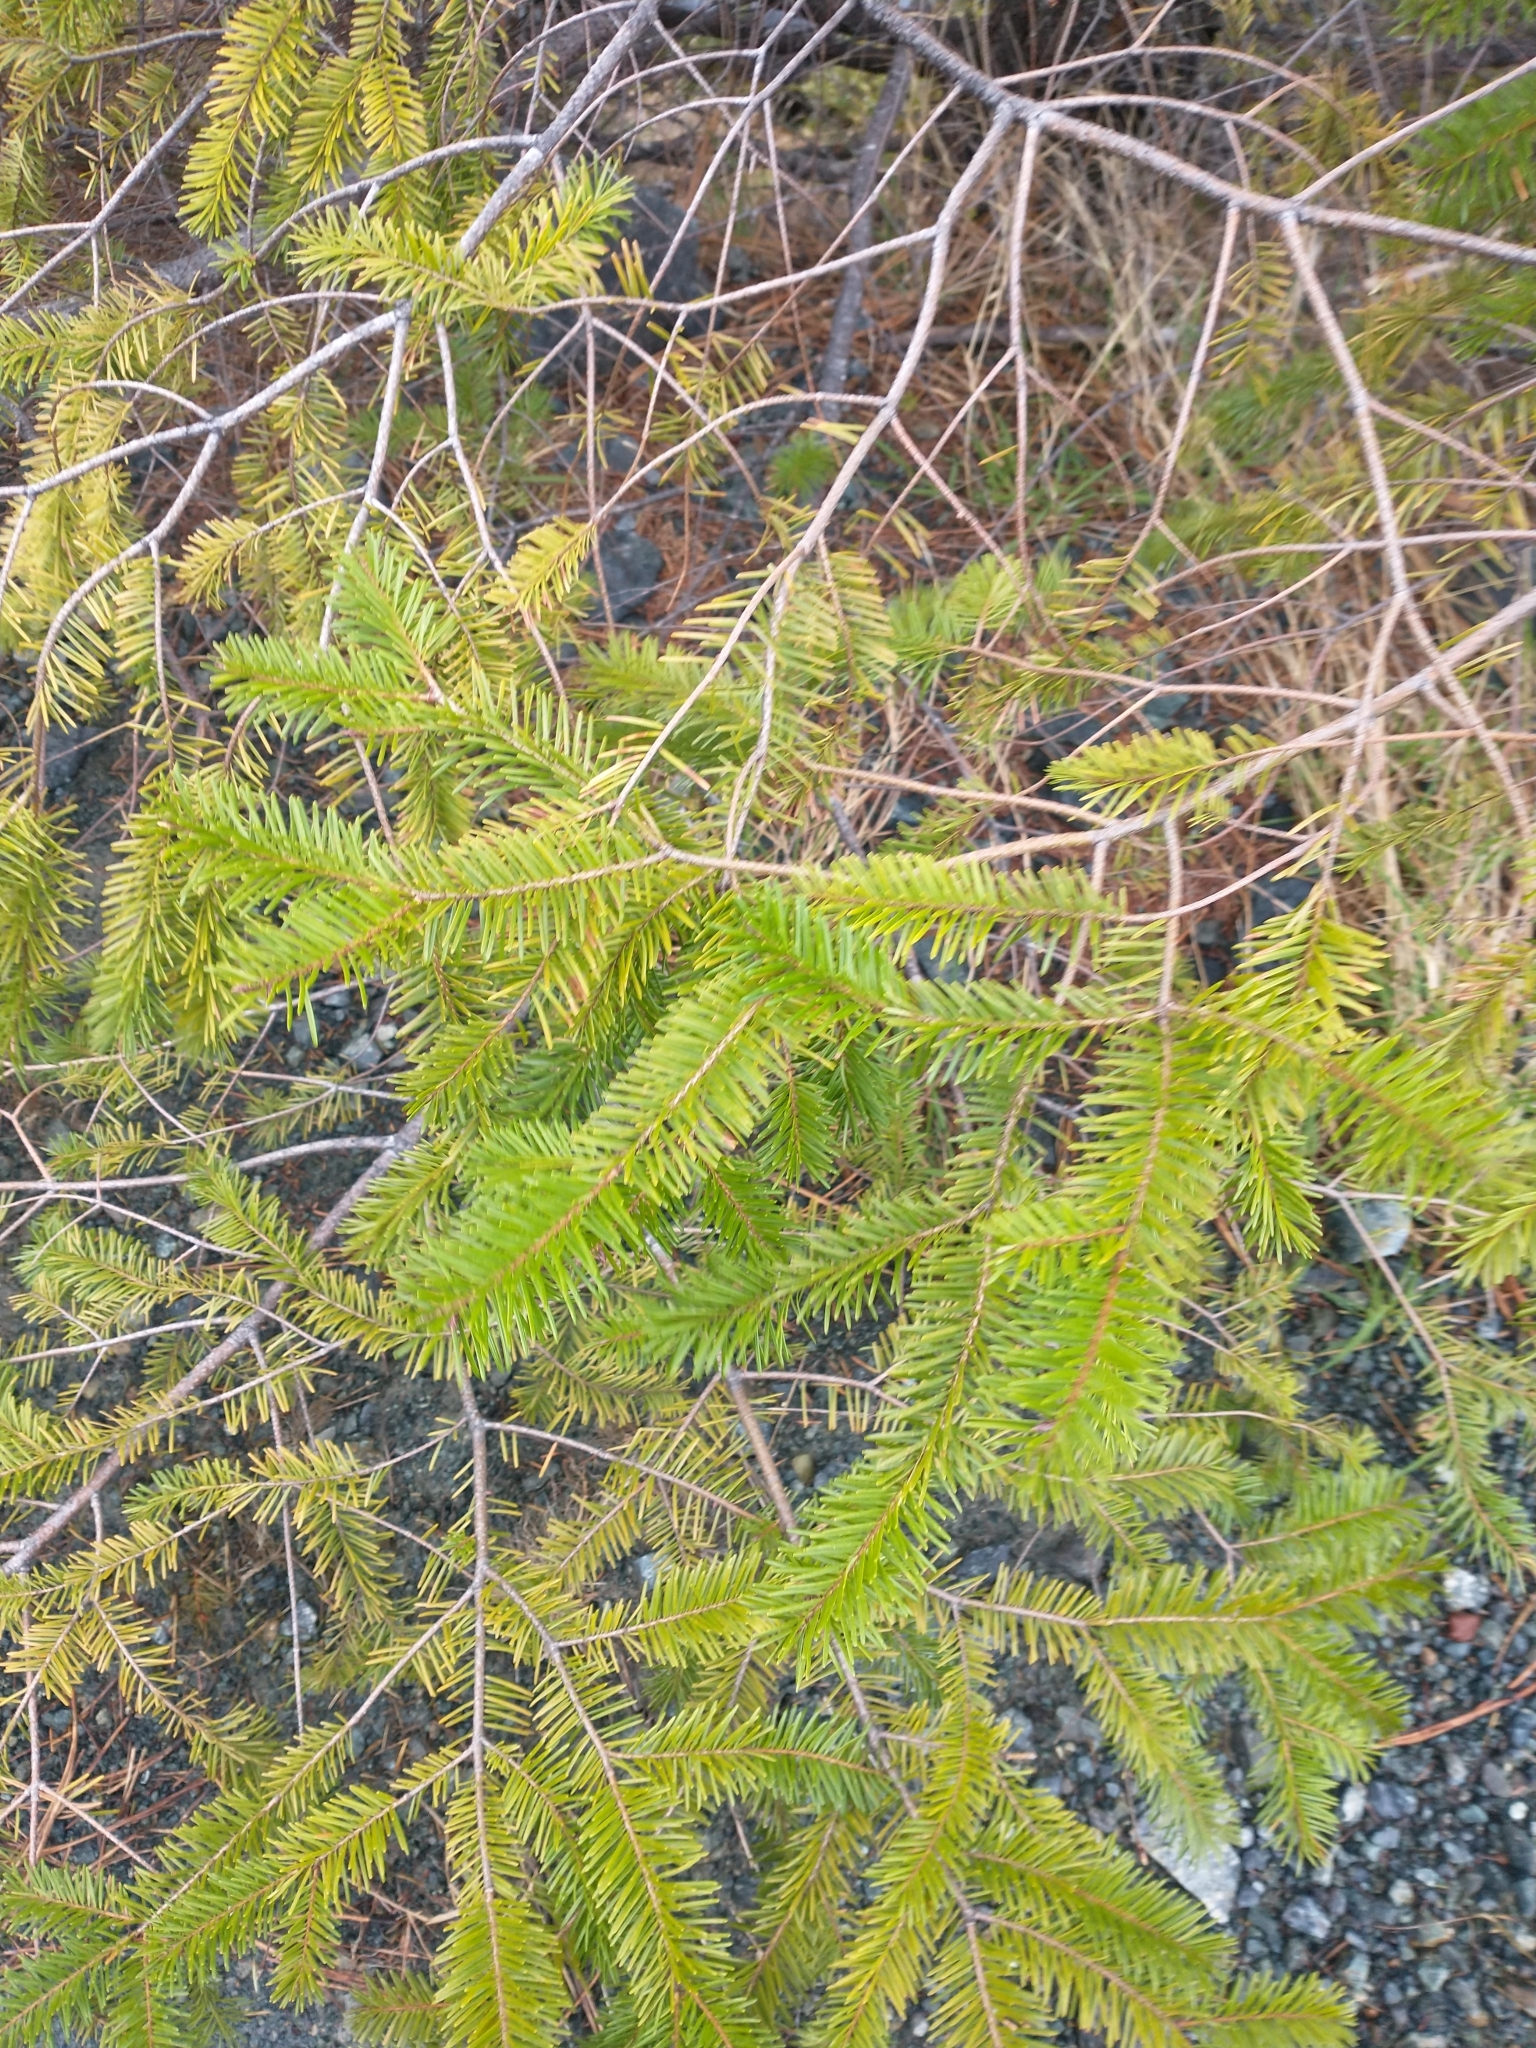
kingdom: Plantae
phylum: Tracheophyta
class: Pinopsida
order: Pinales
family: Pinaceae
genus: Pseudotsuga
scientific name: Pseudotsuga menziesii
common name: Douglas fir
